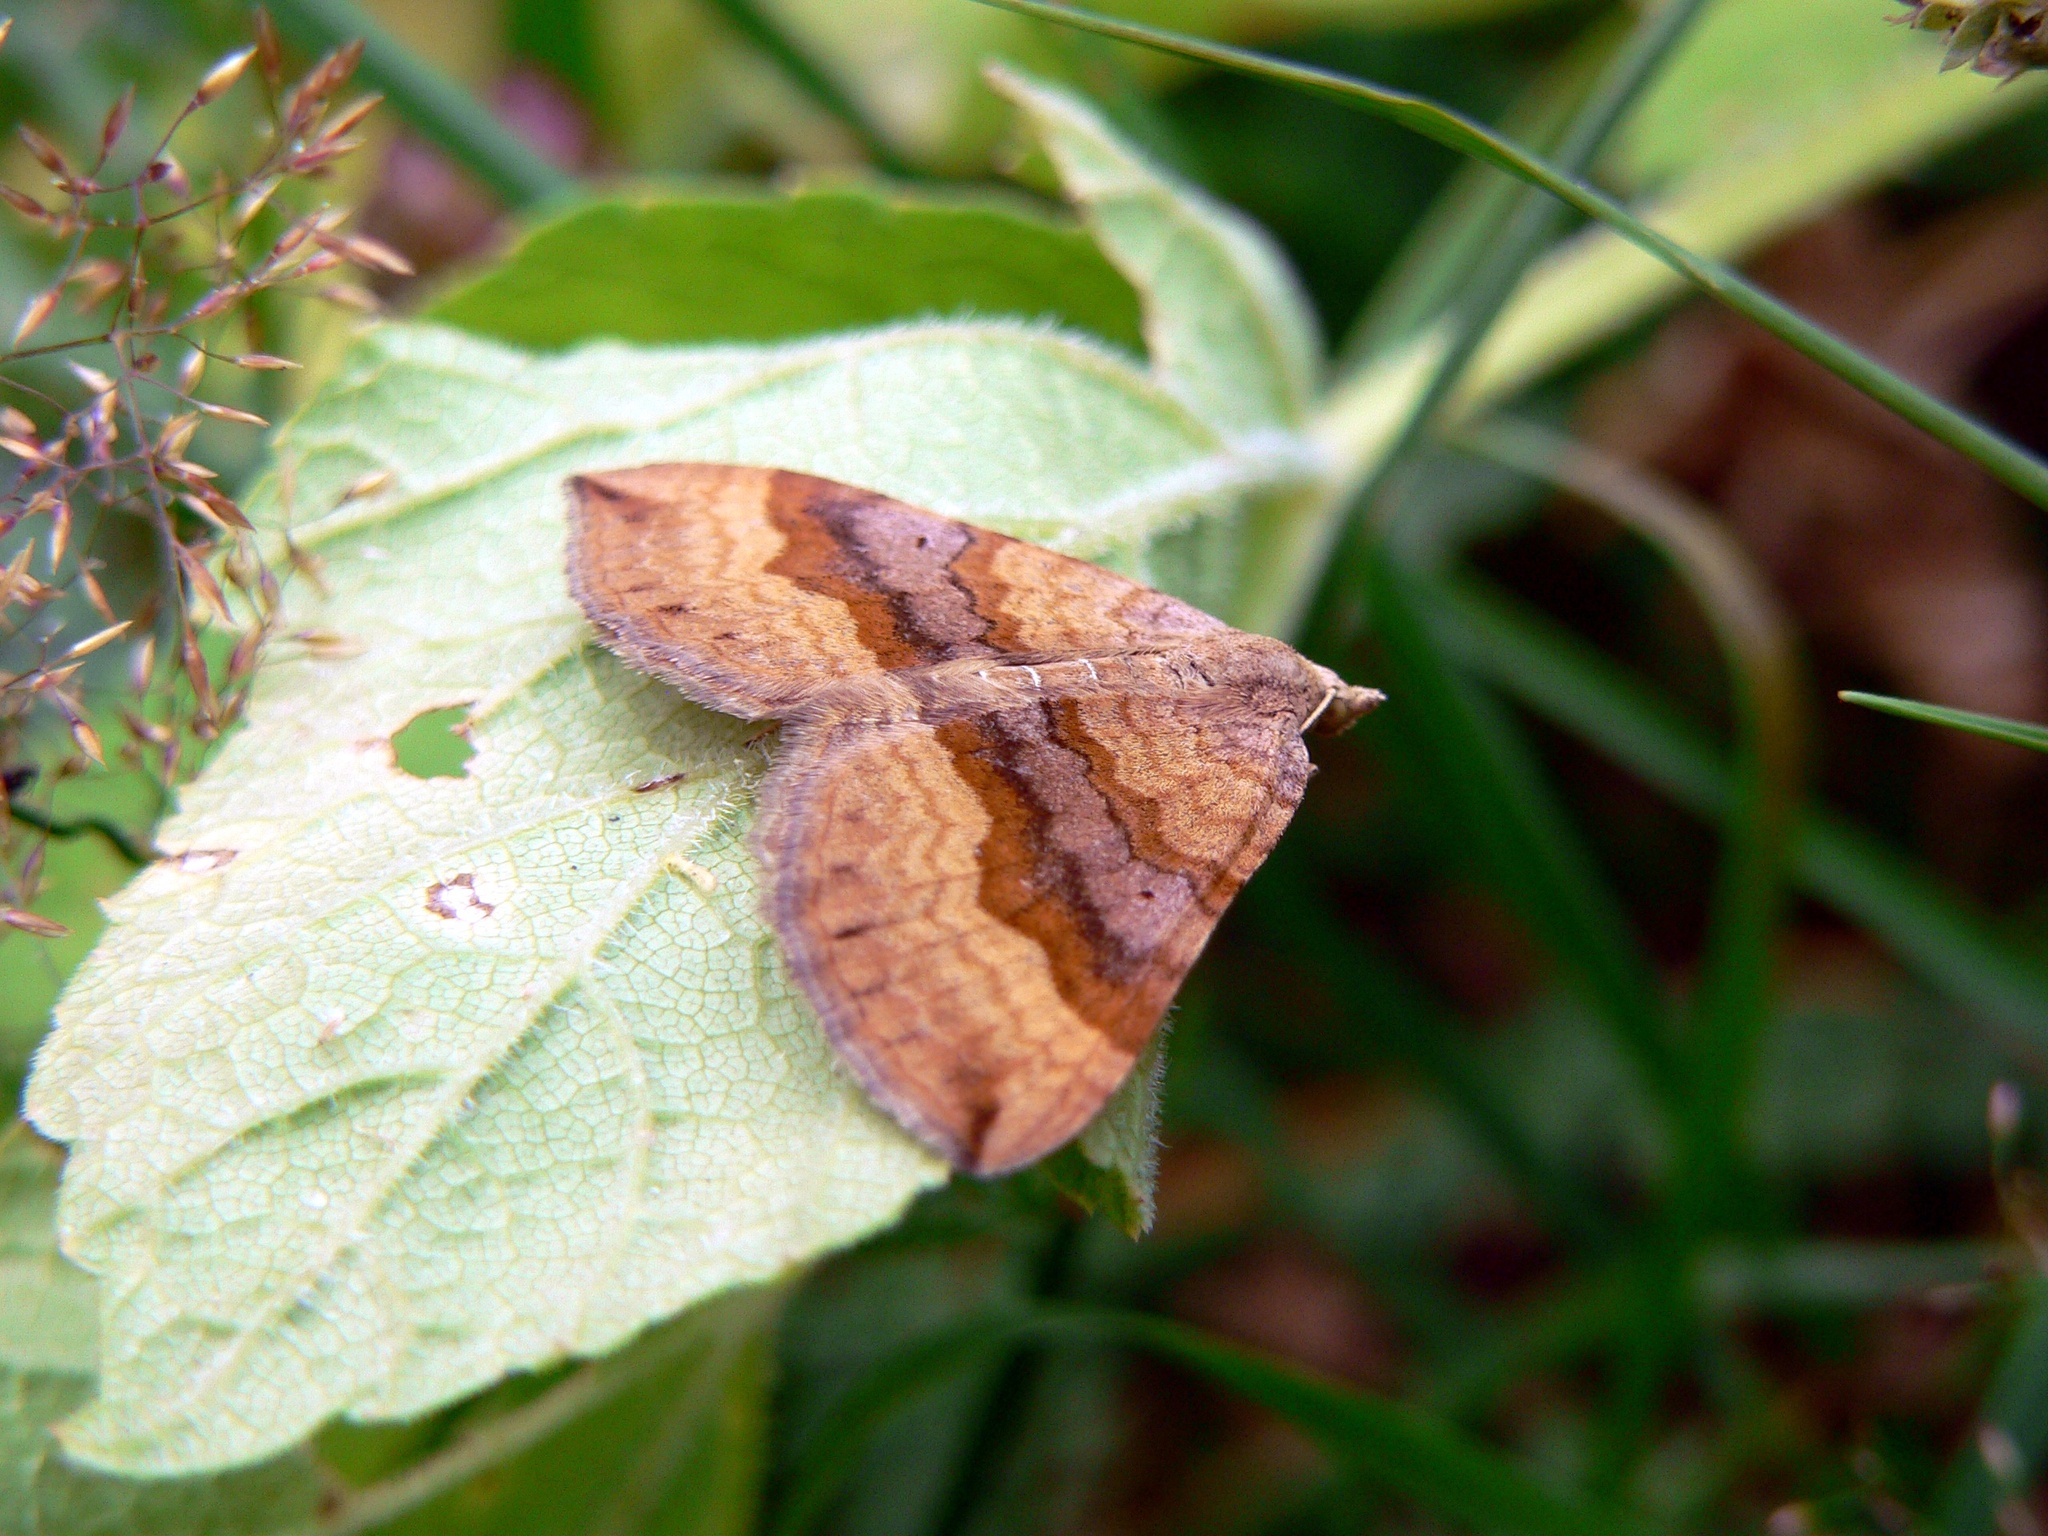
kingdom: Animalia
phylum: Arthropoda
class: Insecta
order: Lepidoptera
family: Geometridae
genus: Scotopteryx
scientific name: Scotopteryx chenopodiata
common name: Shaded broad-bar
